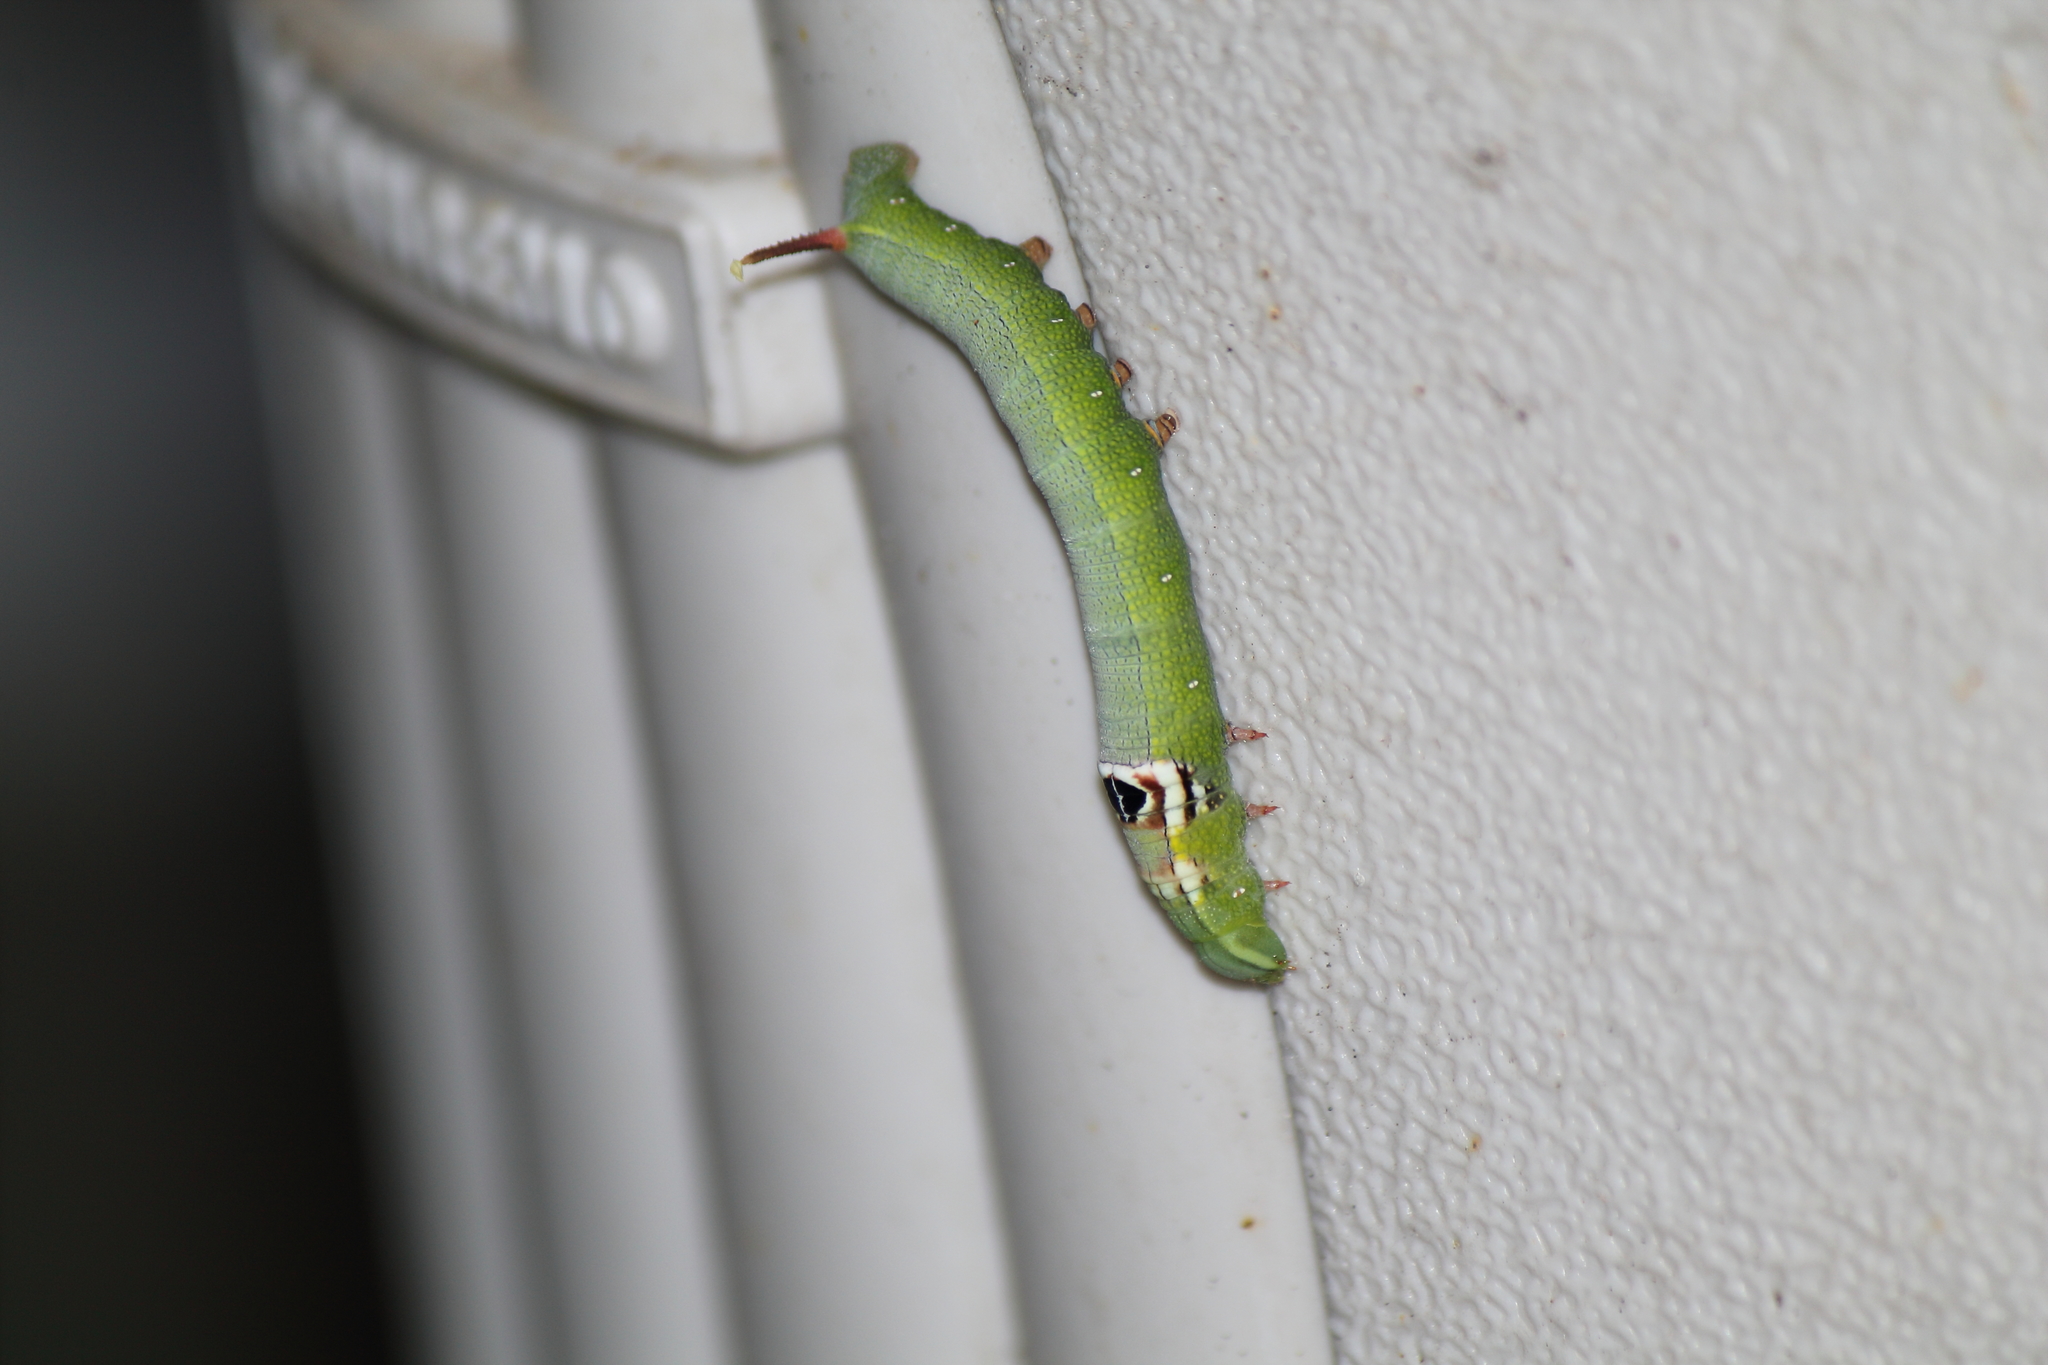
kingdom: Animalia
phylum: Arthropoda
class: Insecta
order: Lepidoptera
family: Sphingidae
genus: Erinnyis
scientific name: Erinnyis ello
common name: Ello sphinx
